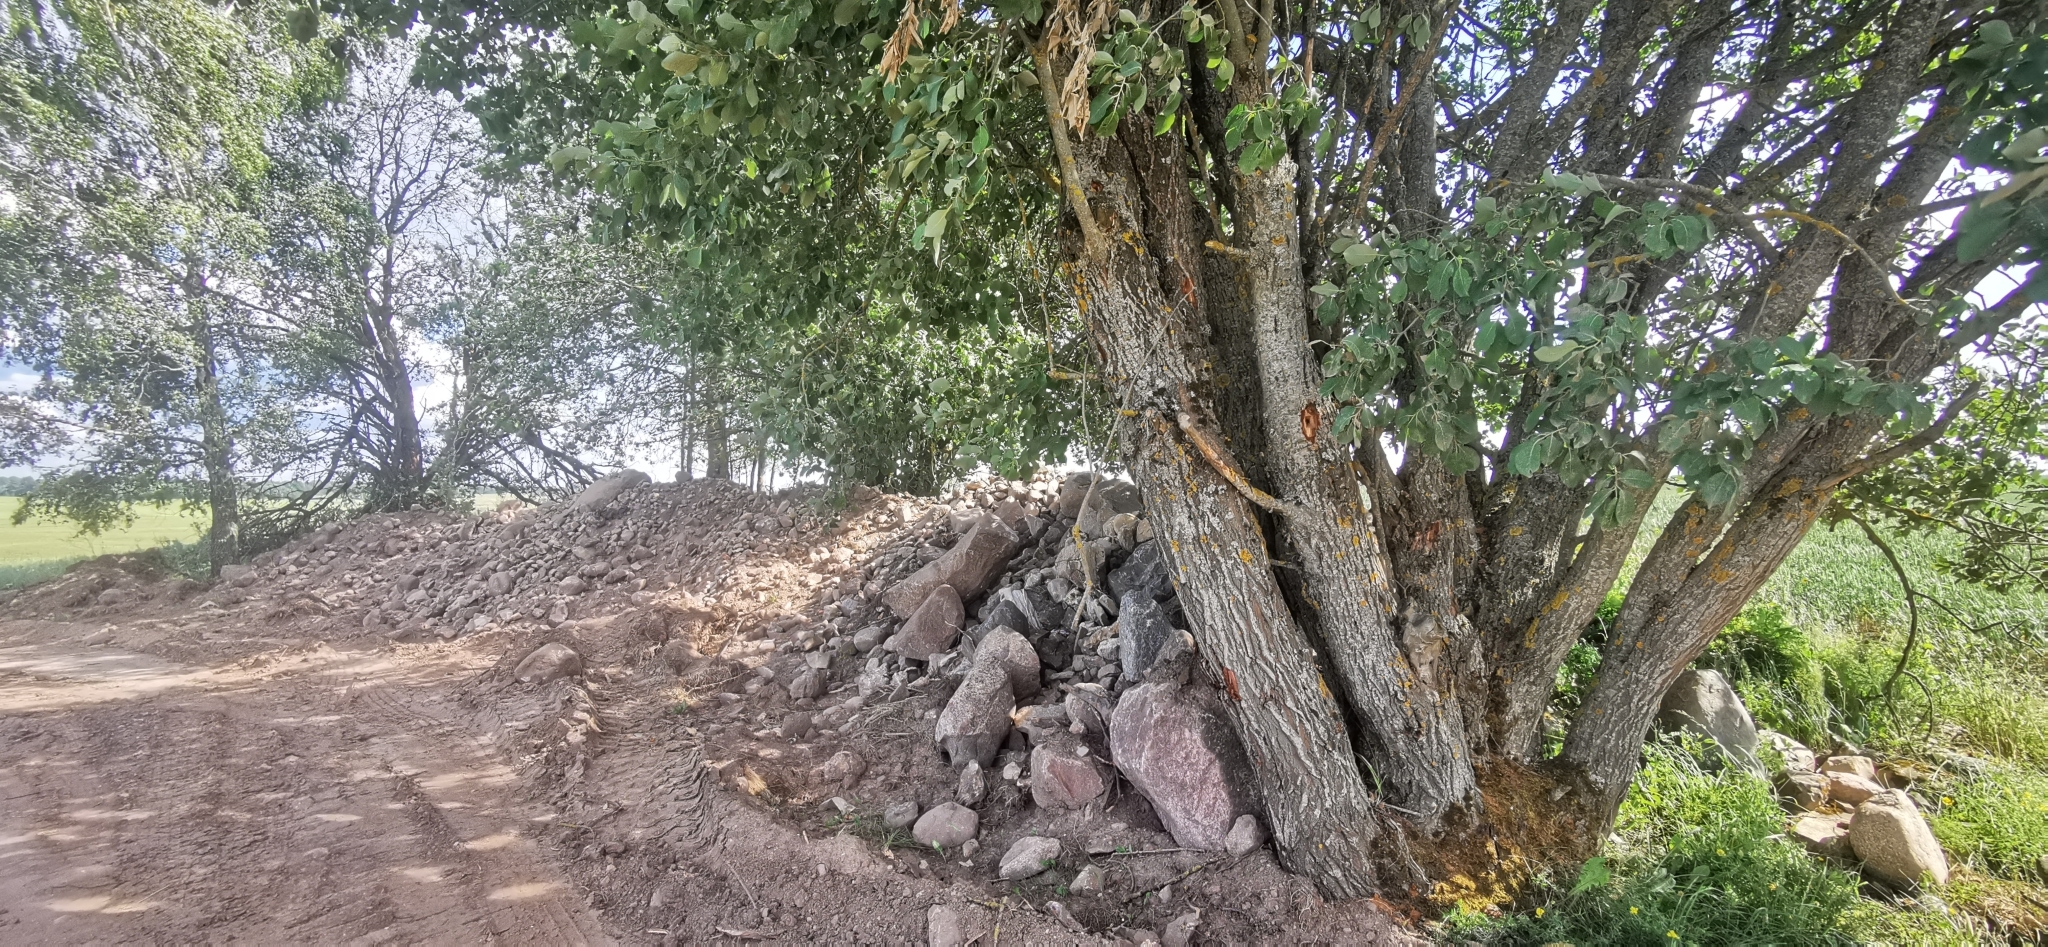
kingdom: Plantae
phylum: Tracheophyta
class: Magnoliopsida
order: Malpighiales
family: Salicaceae
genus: Salix
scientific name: Salix caprea
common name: Goat willow
